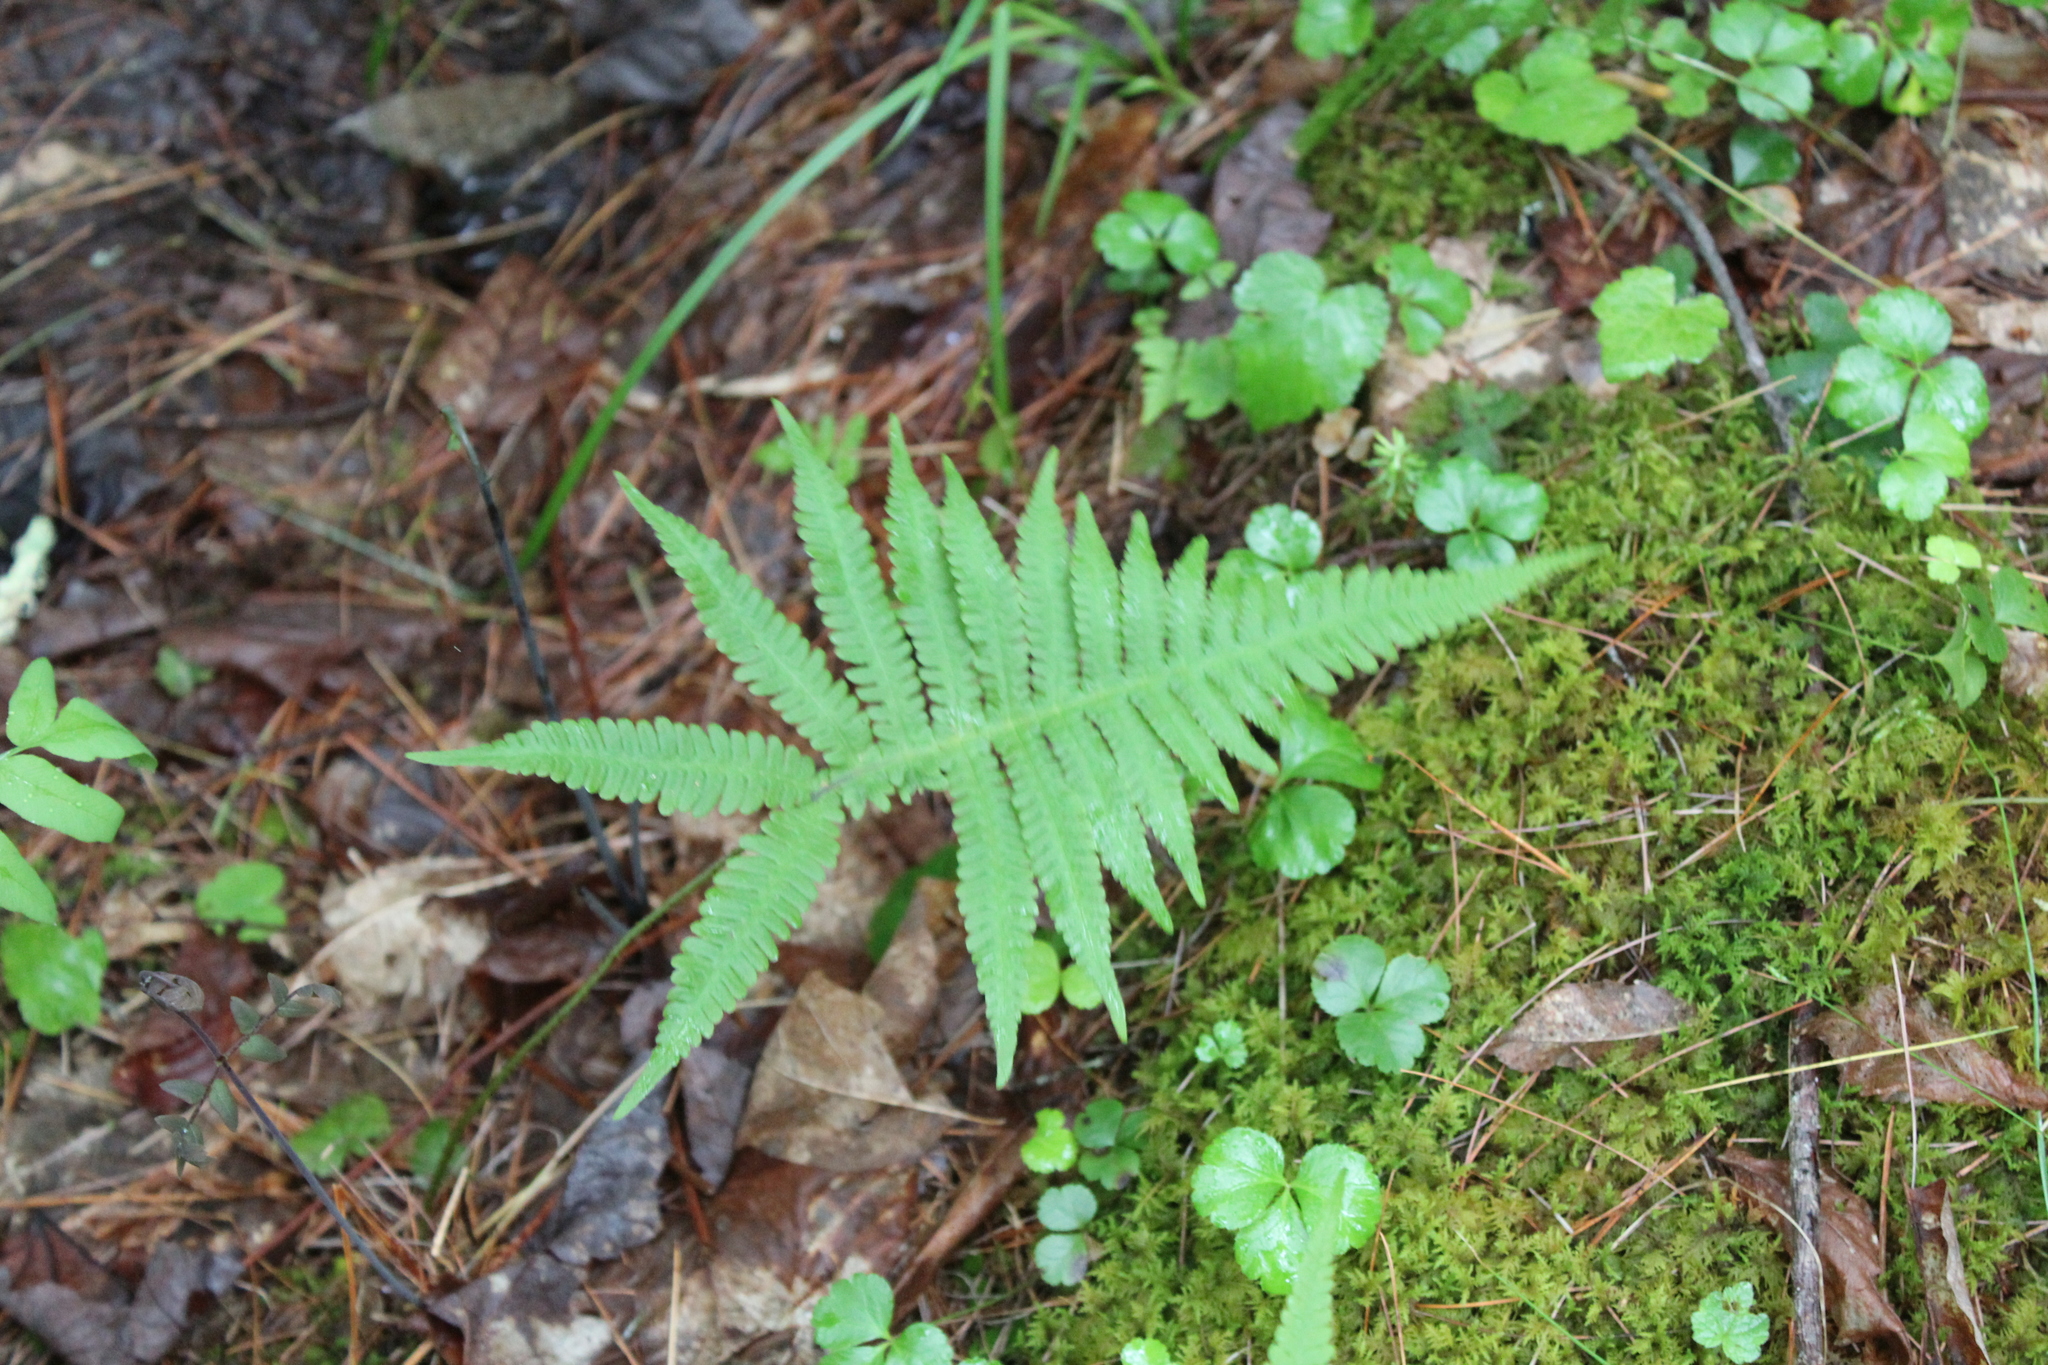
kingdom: Plantae
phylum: Tracheophyta
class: Polypodiopsida
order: Polypodiales
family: Thelypteridaceae
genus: Phegopteris
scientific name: Phegopteris connectilis
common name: Beech fern
